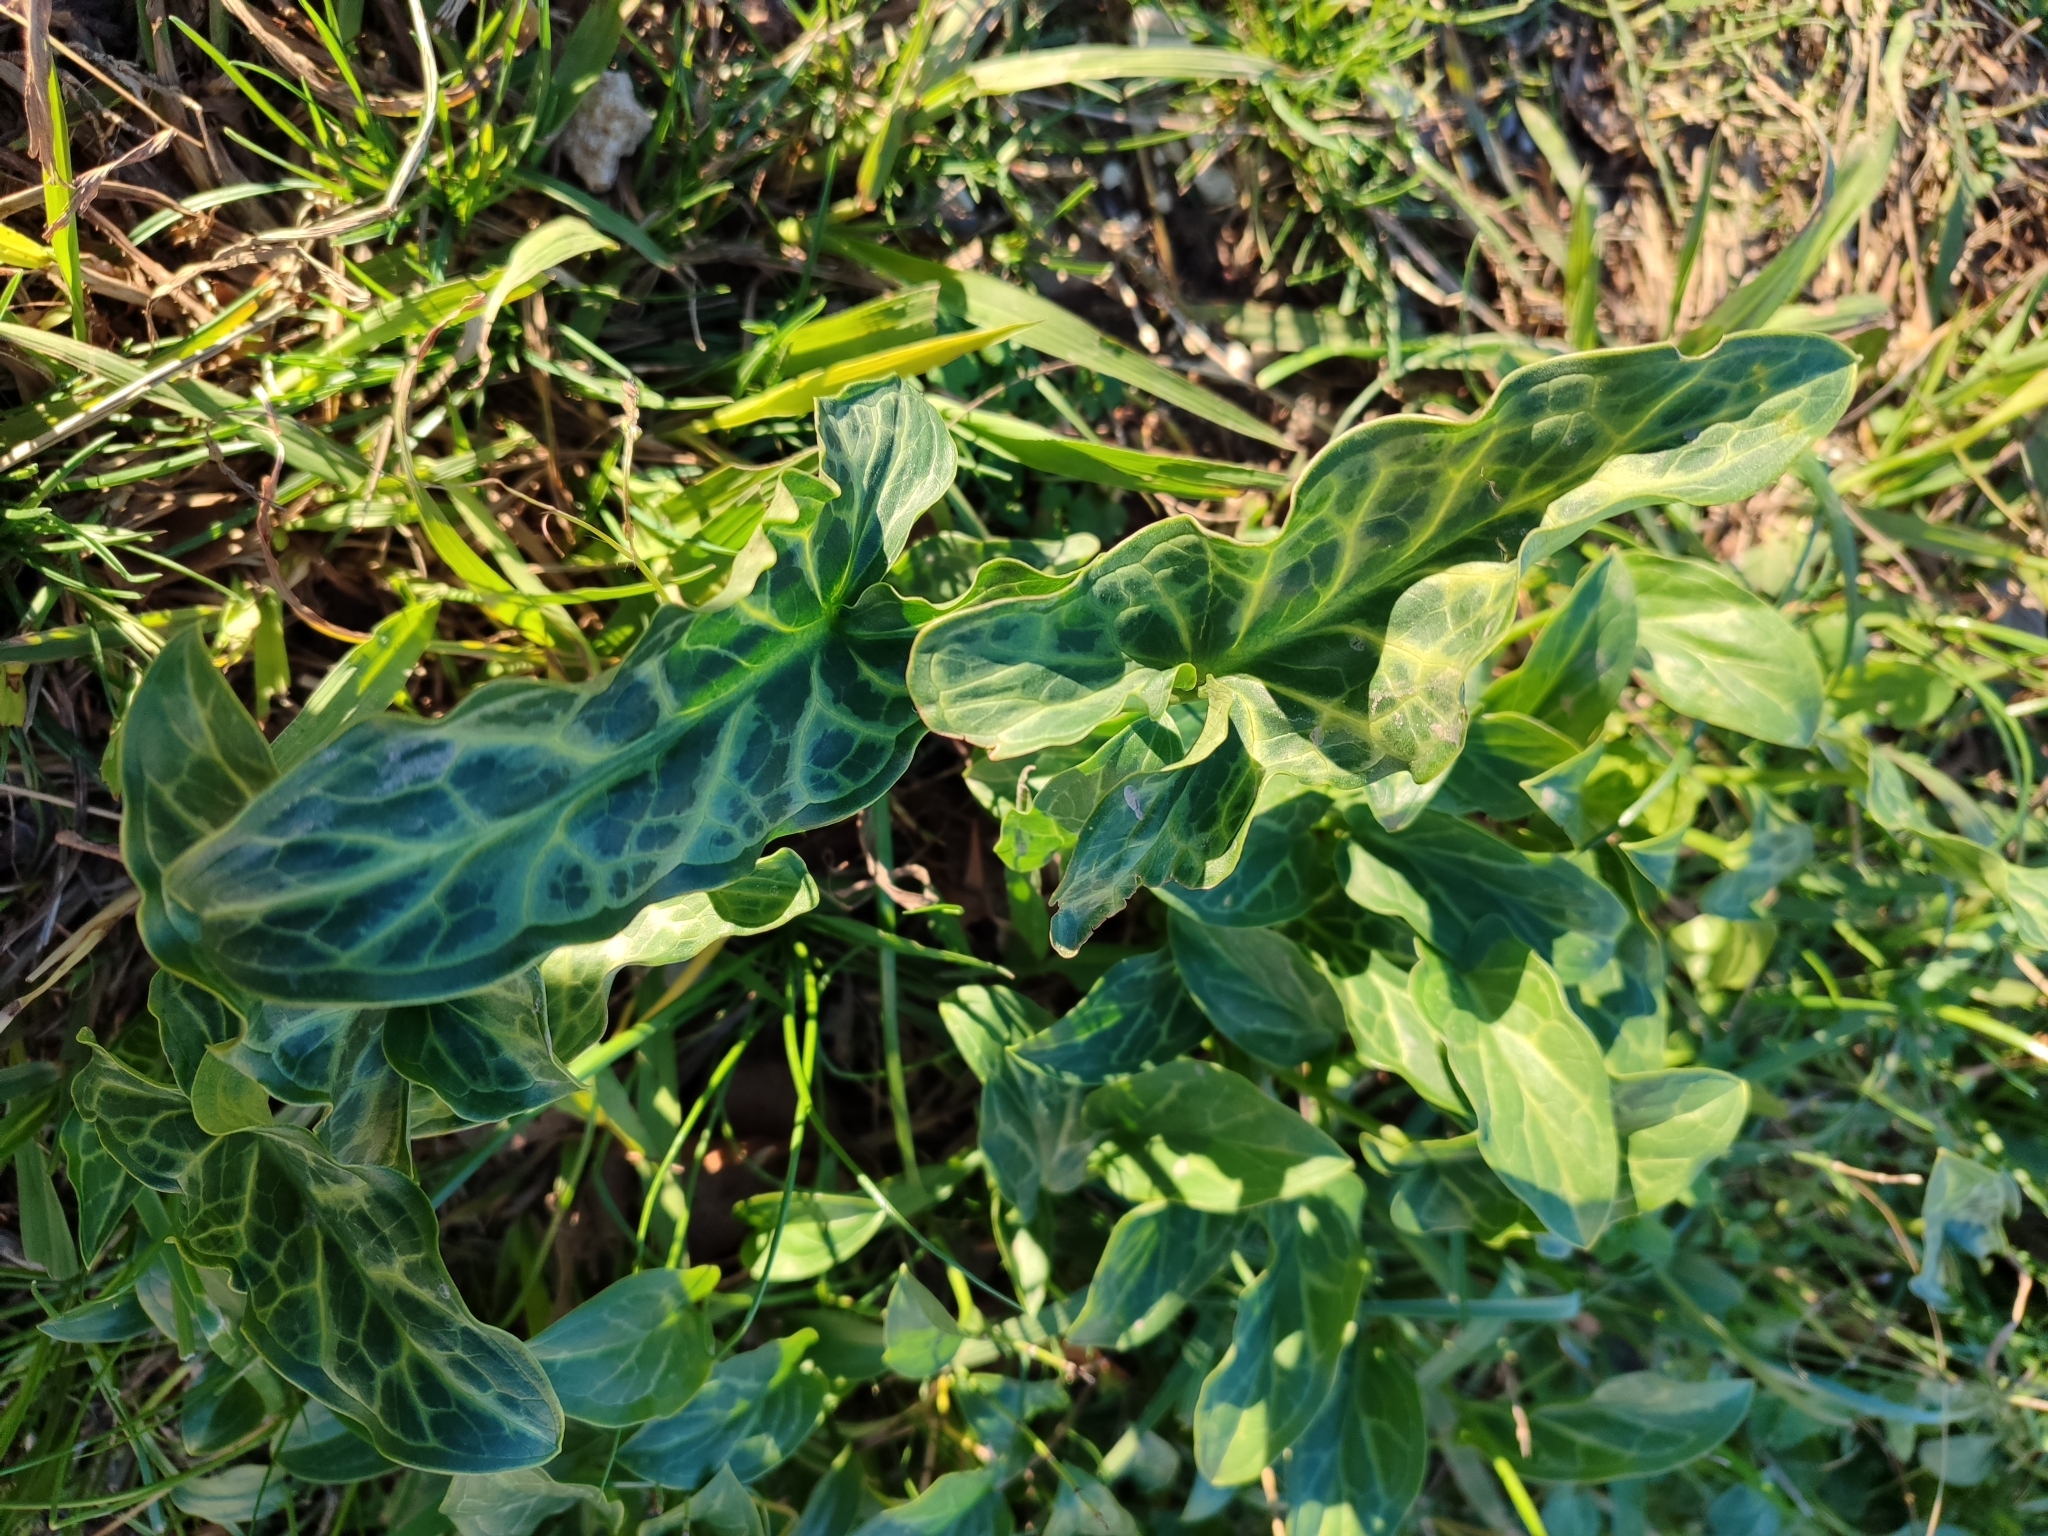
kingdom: Plantae
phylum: Tracheophyta
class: Liliopsida
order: Alismatales
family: Araceae
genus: Arum
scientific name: Arum italicum
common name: Italian lords-and-ladies
